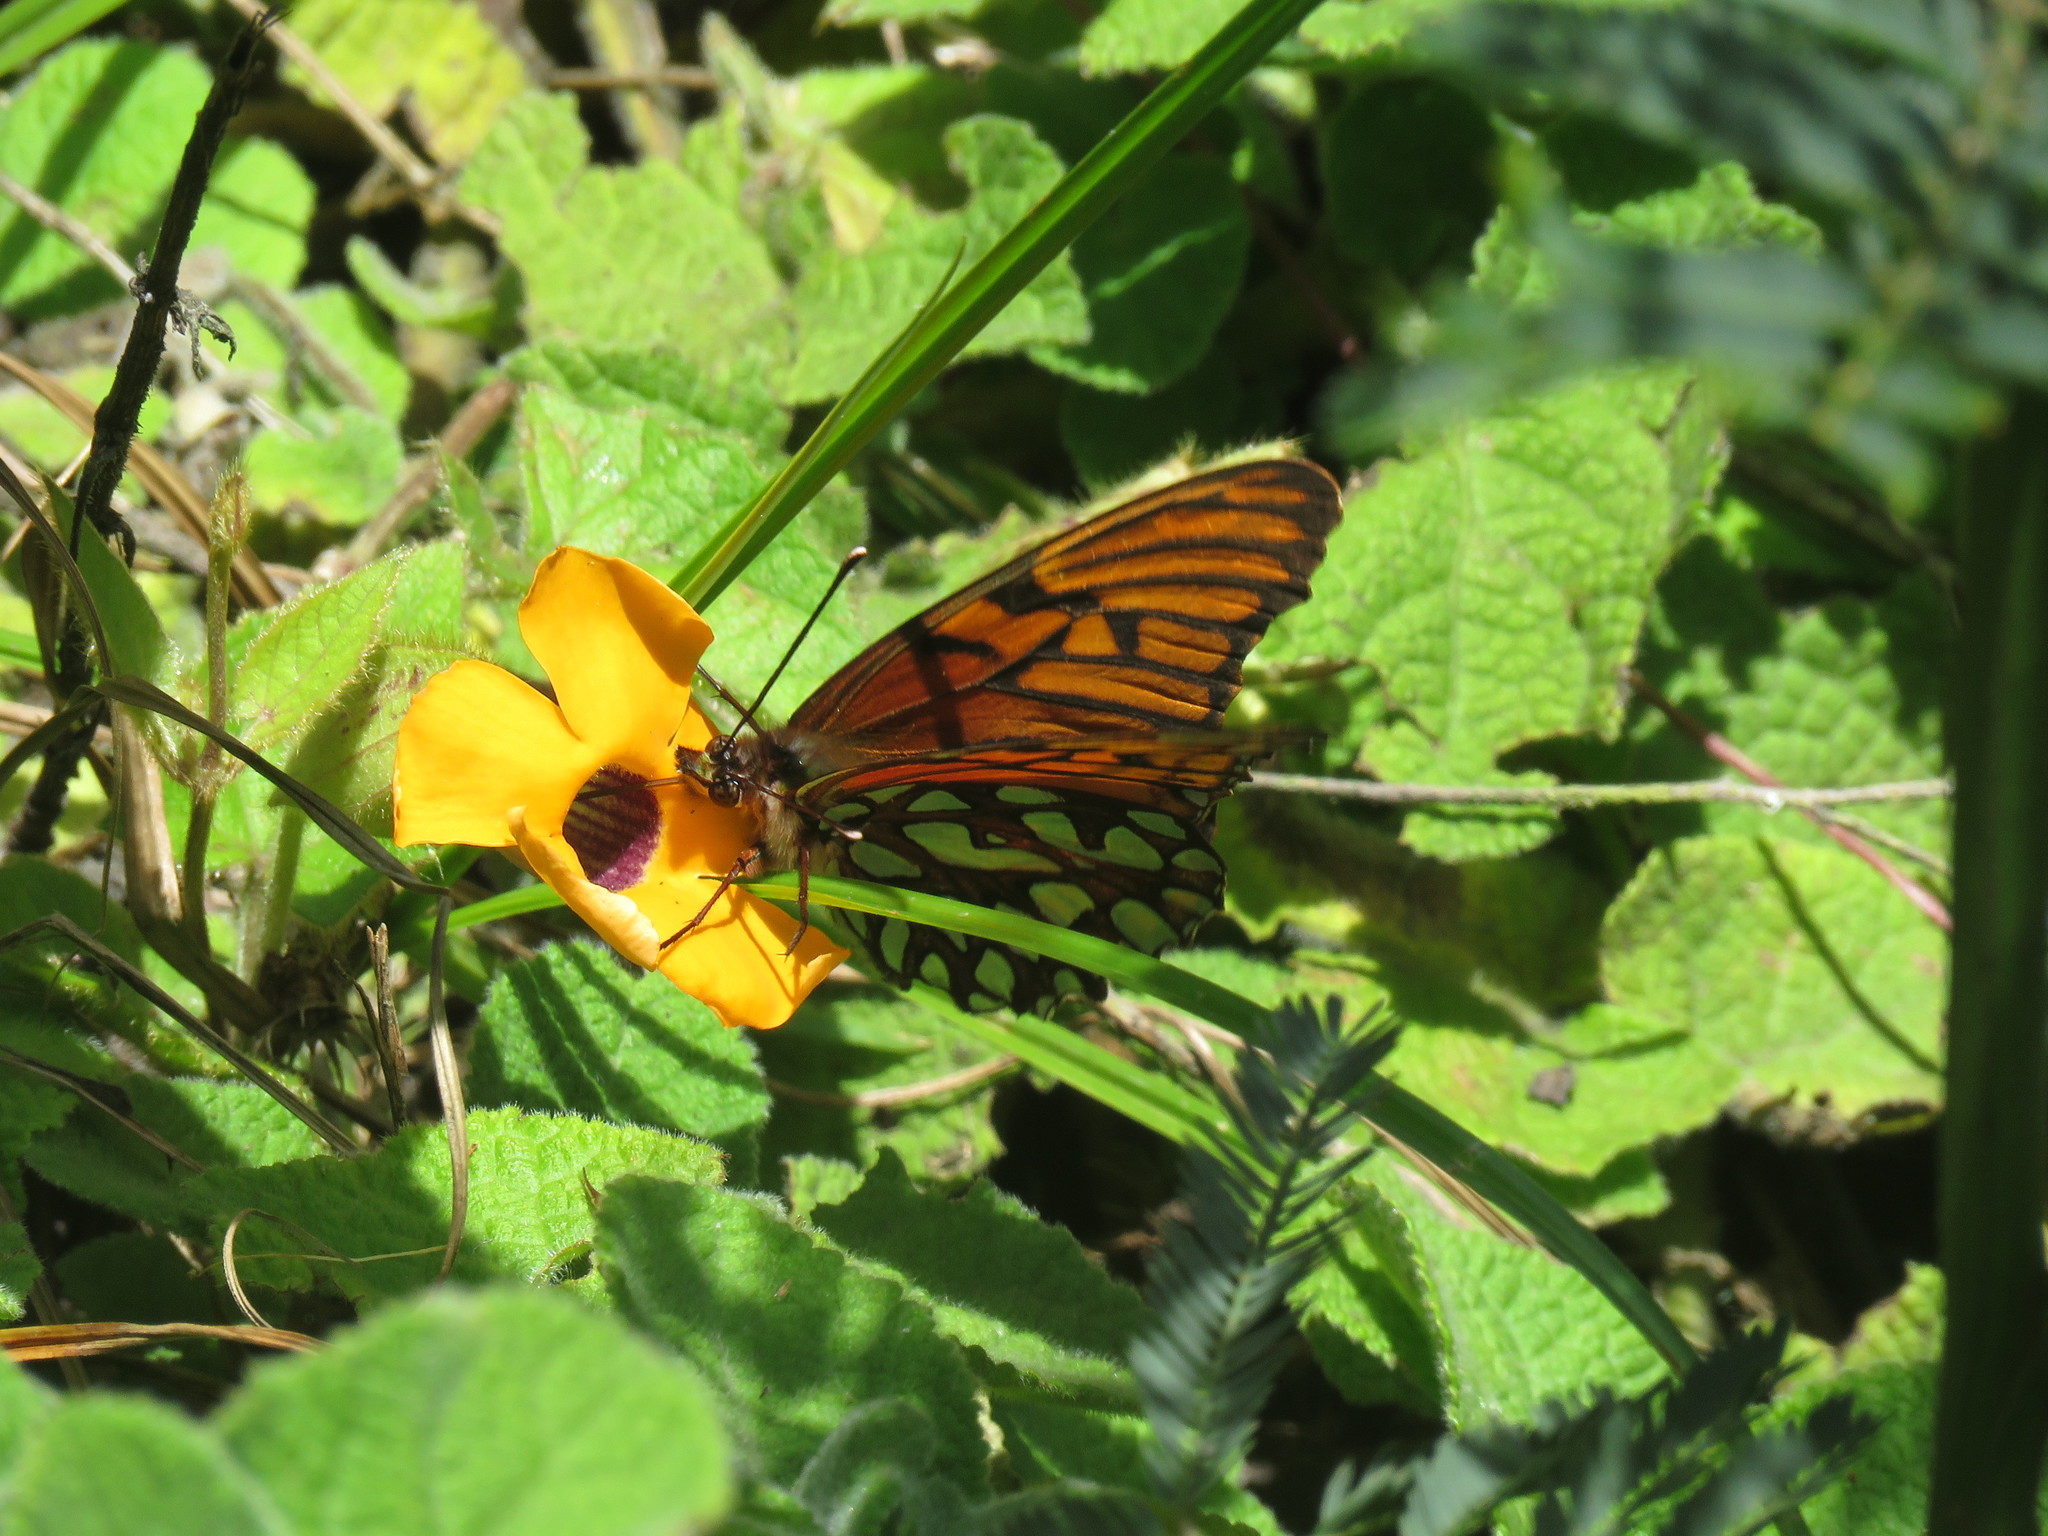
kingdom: Plantae
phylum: Tracheophyta
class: Magnoliopsida
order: Lamiales
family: Acanthaceae
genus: Thunbergia
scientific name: Thunbergia alata
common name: Blackeyed susan vine
